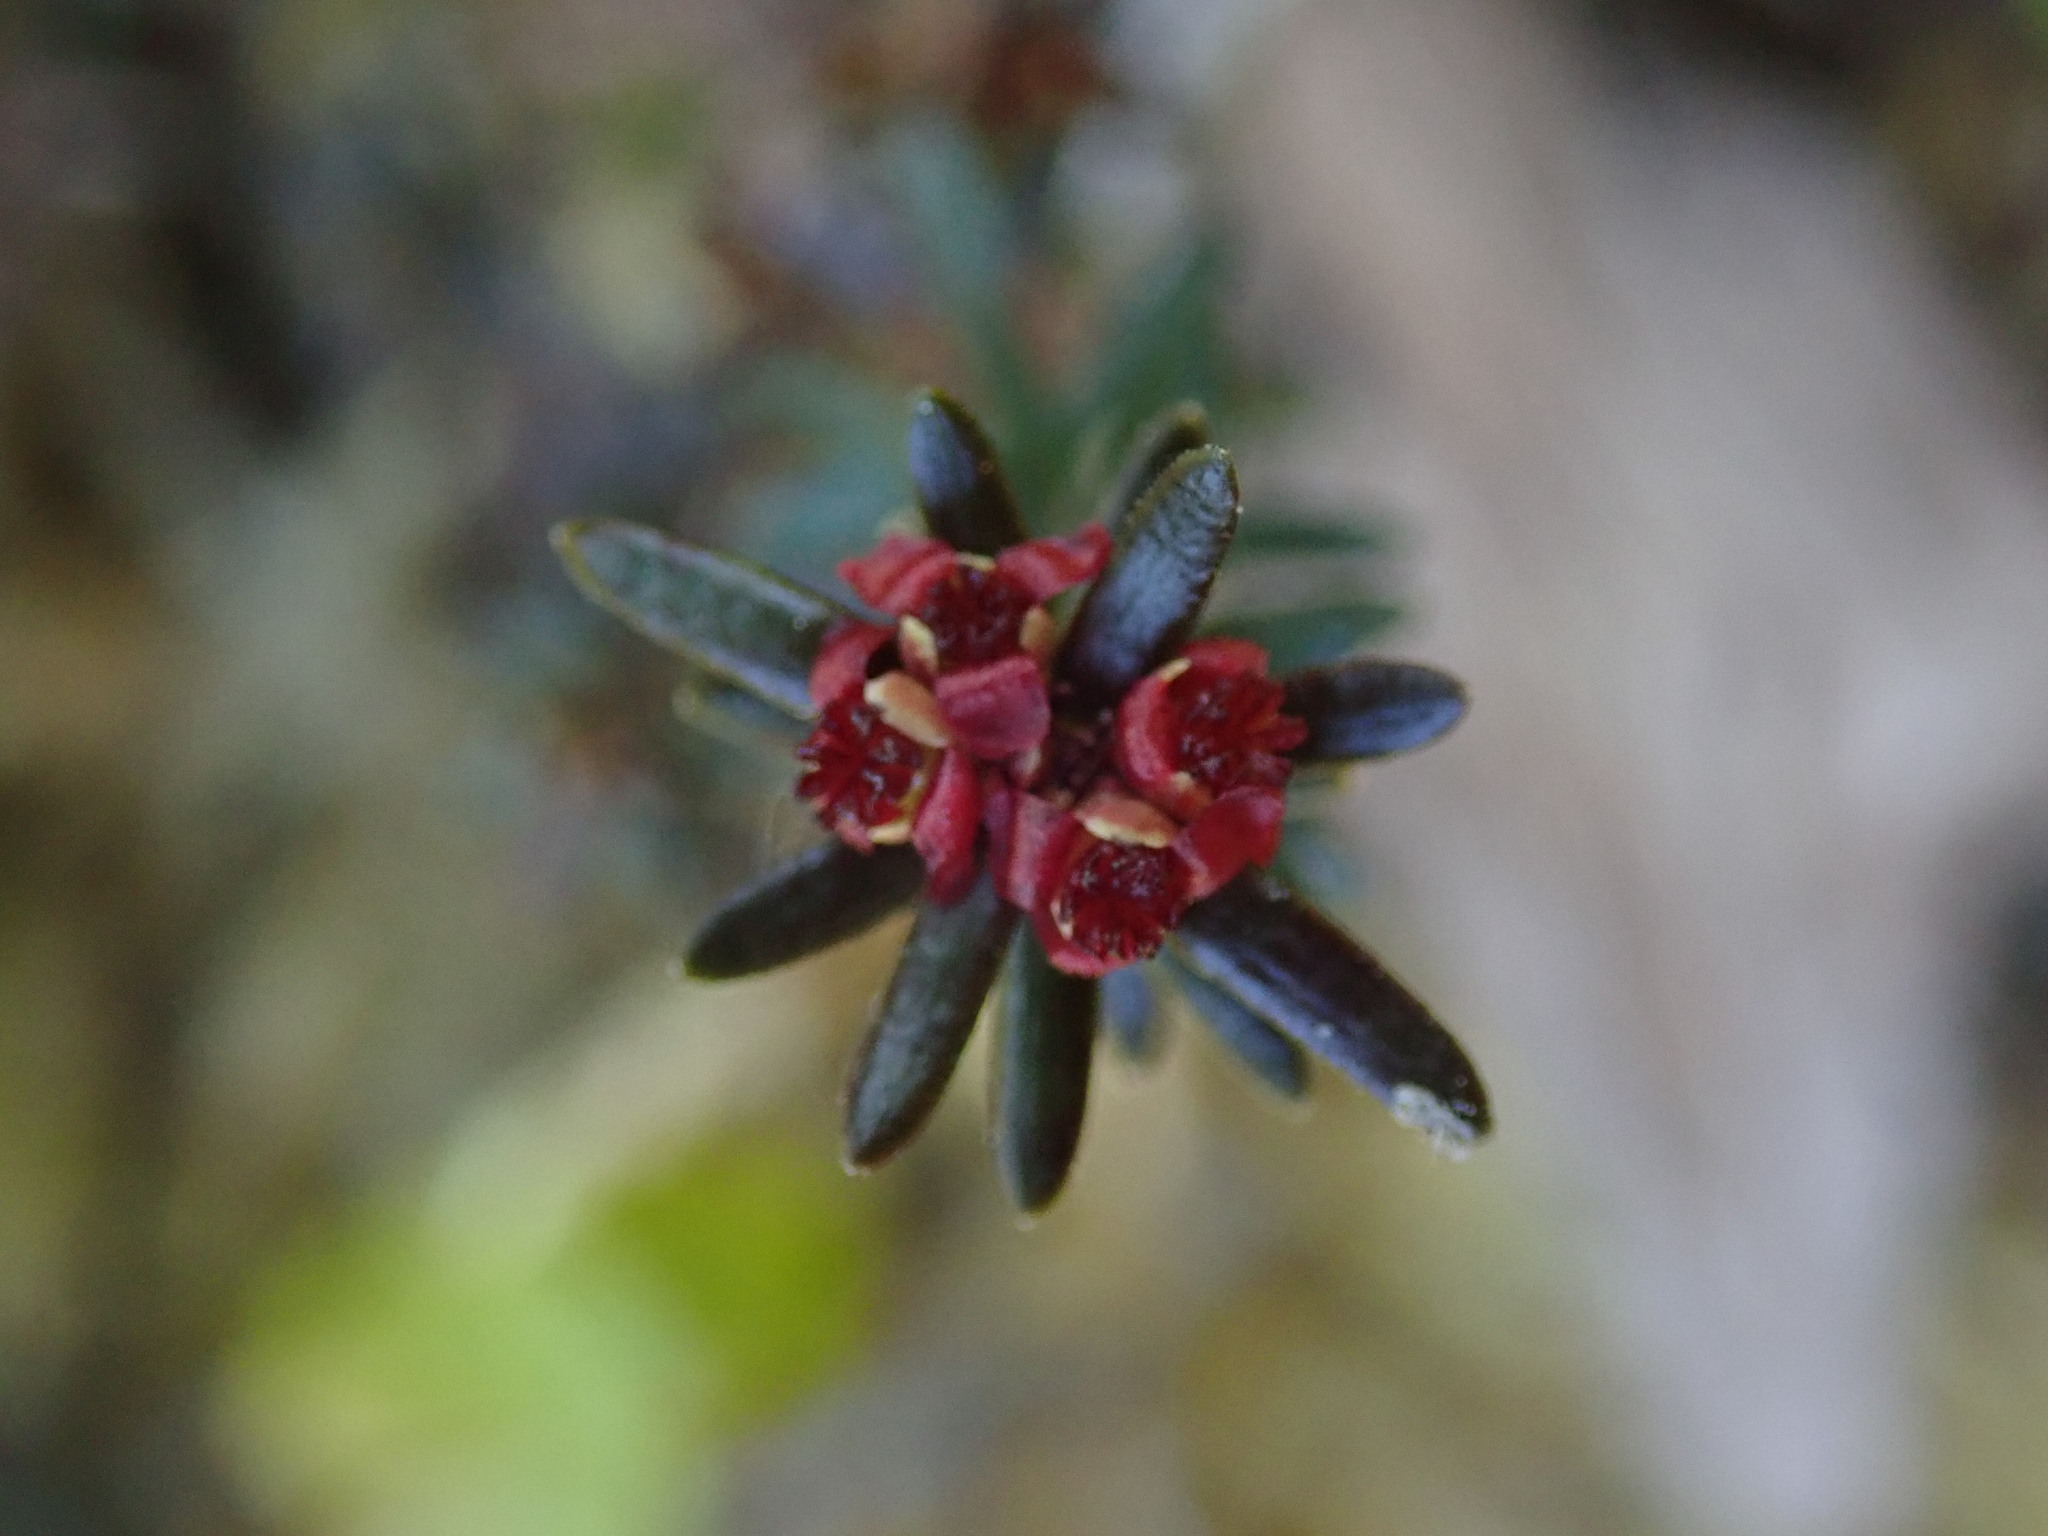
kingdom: Plantae
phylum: Tracheophyta
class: Magnoliopsida
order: Ericales
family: Ericaceae
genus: Empetrum
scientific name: Empetrum nigrum
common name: Black crowberry
